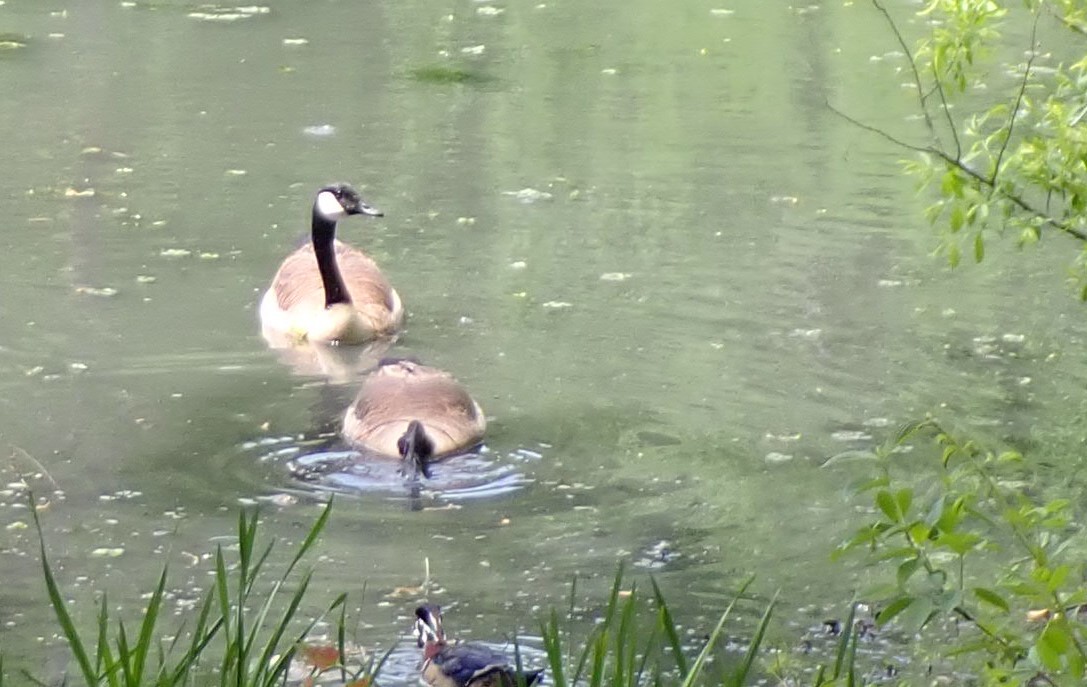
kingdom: Animalia
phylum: Chordata
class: Aves
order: Anseriformes
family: Anatidae
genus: Branta
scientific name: Branta canadensis
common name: Canada goose
